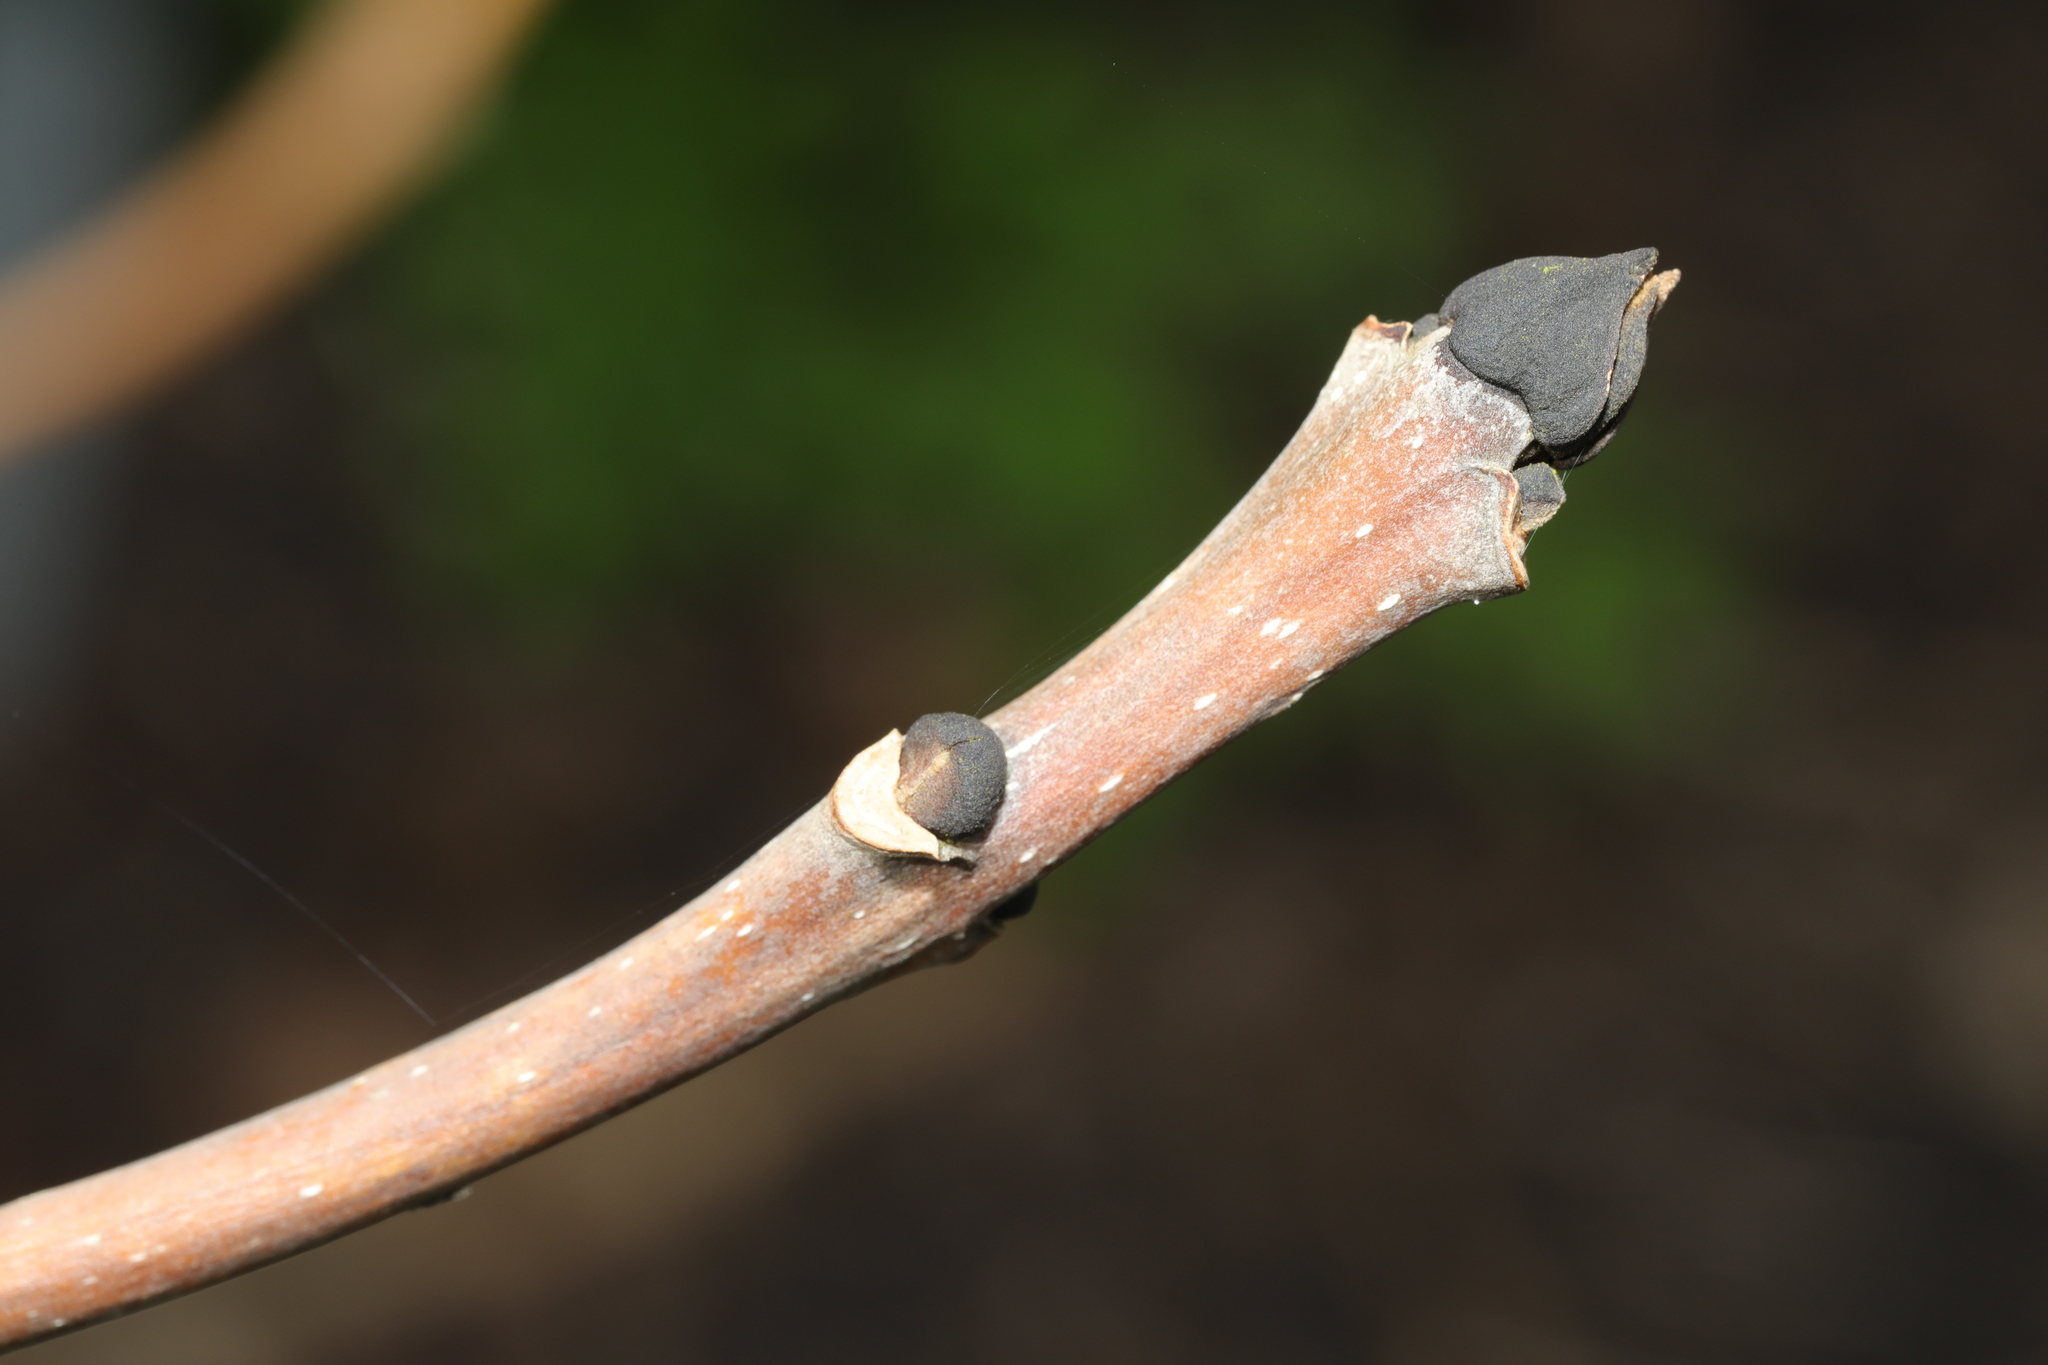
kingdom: Plantae
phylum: Tracheophyta
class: Magnoliopsida
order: Lamiales
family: Oleaceae
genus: Fraxinus
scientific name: Fraxinus excelsior
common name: European ash
